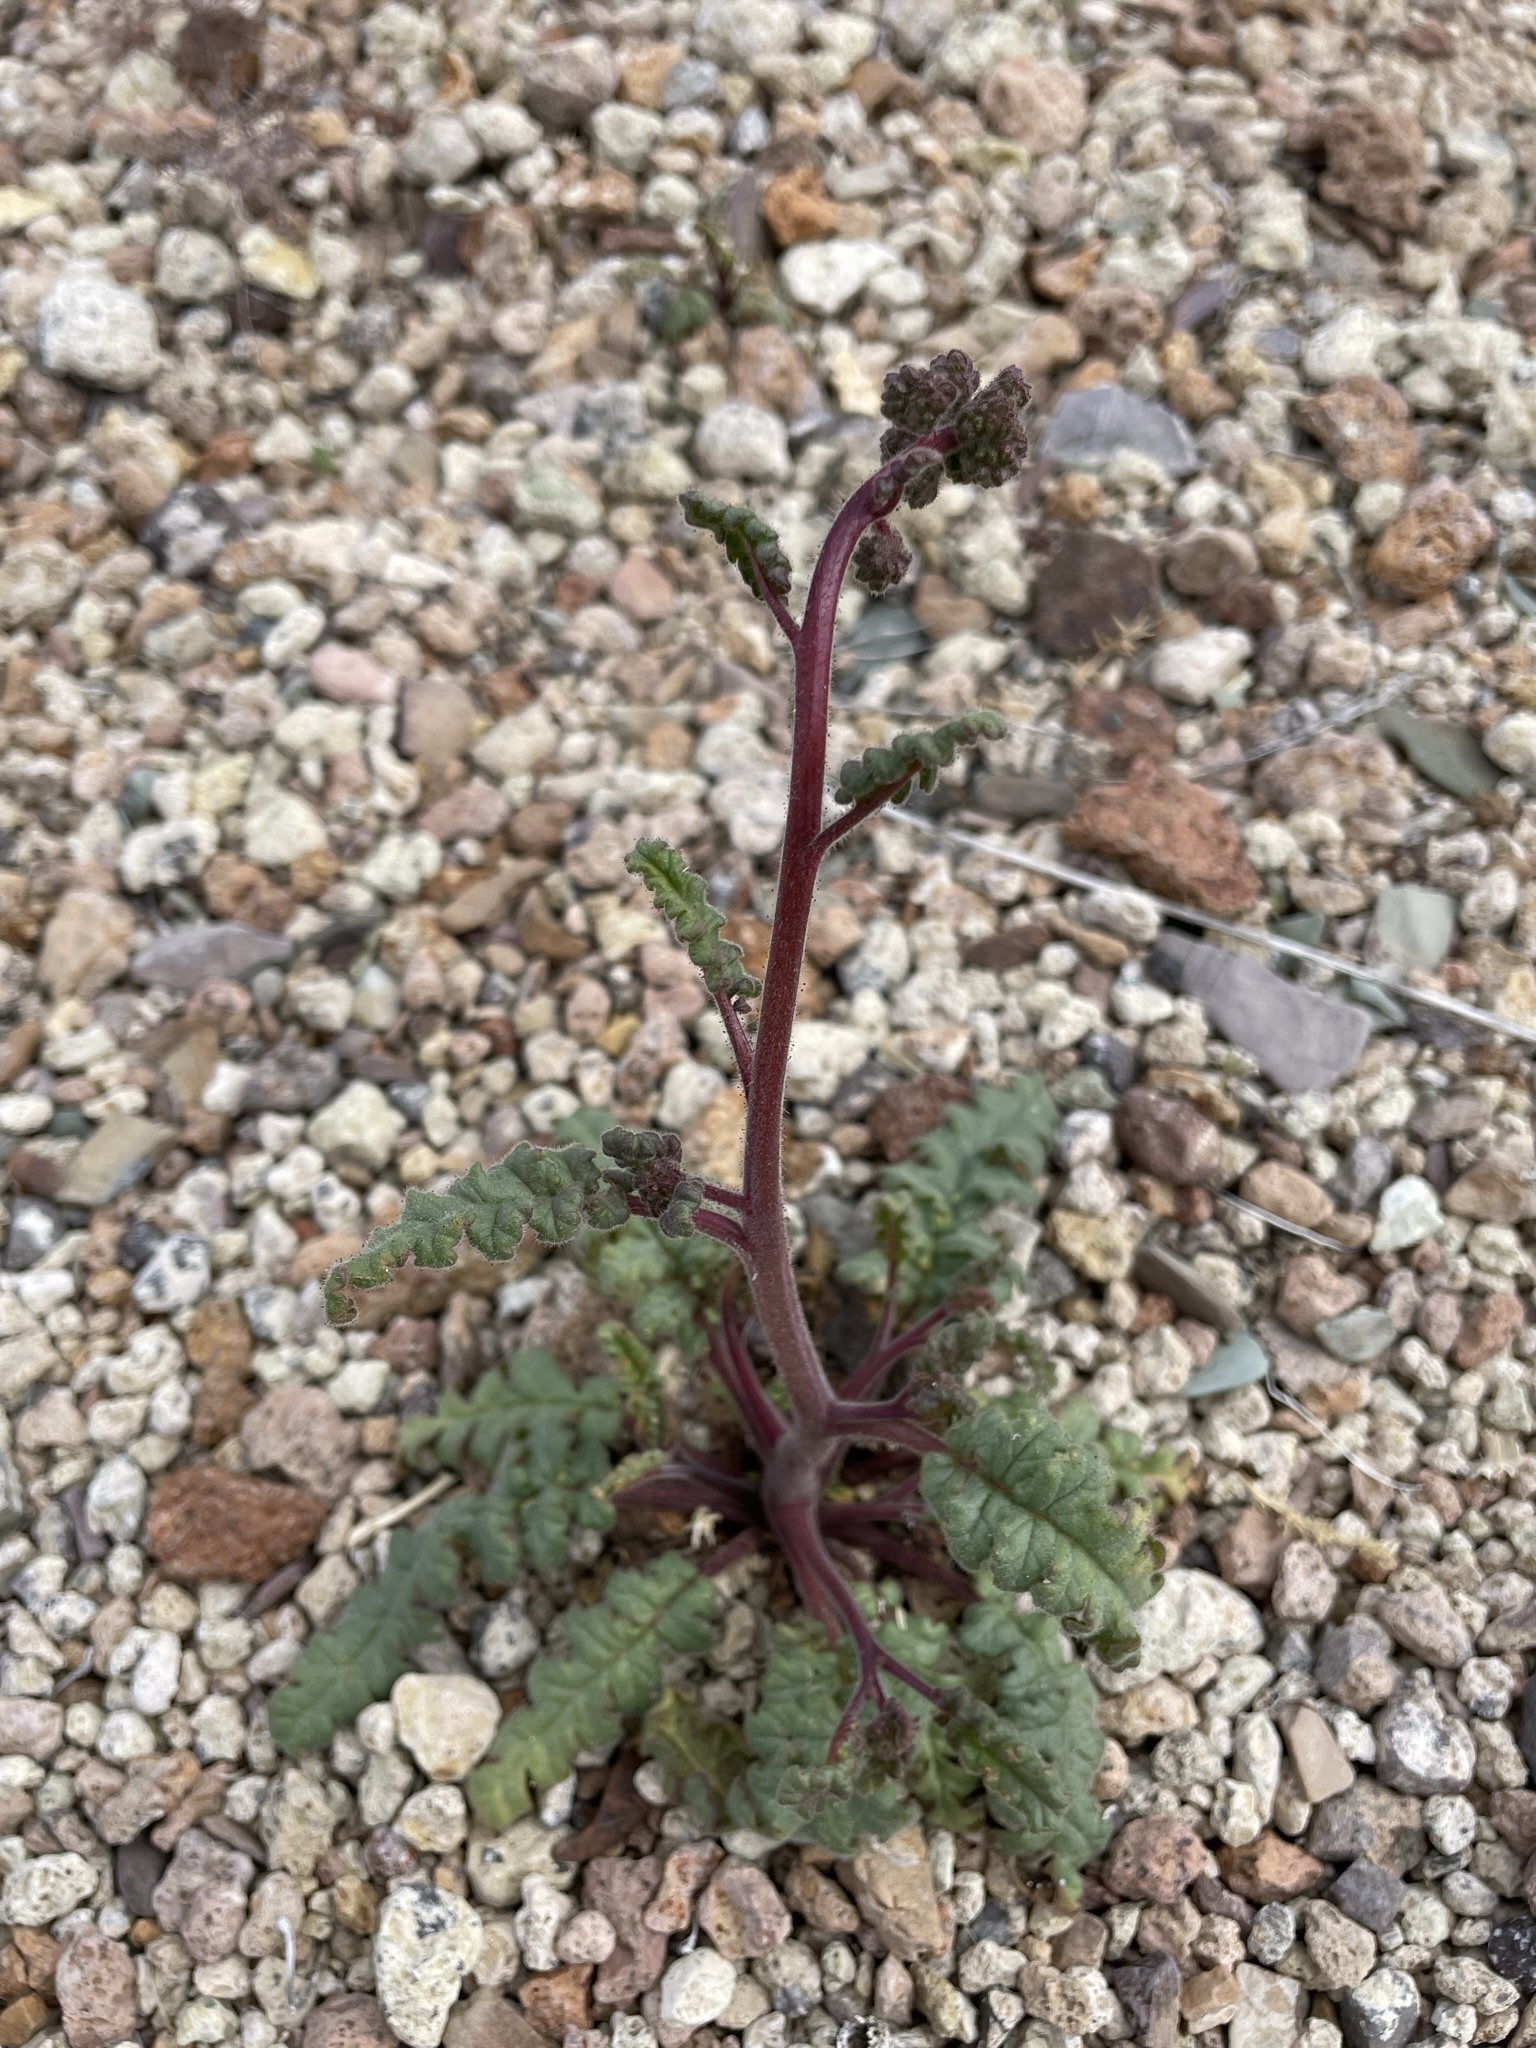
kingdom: Plantae
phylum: Tracheophyta
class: Magnoliopsida
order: Boraginales
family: Hydrophyllaceae
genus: Phacelia
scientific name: Phacelia crenulata
